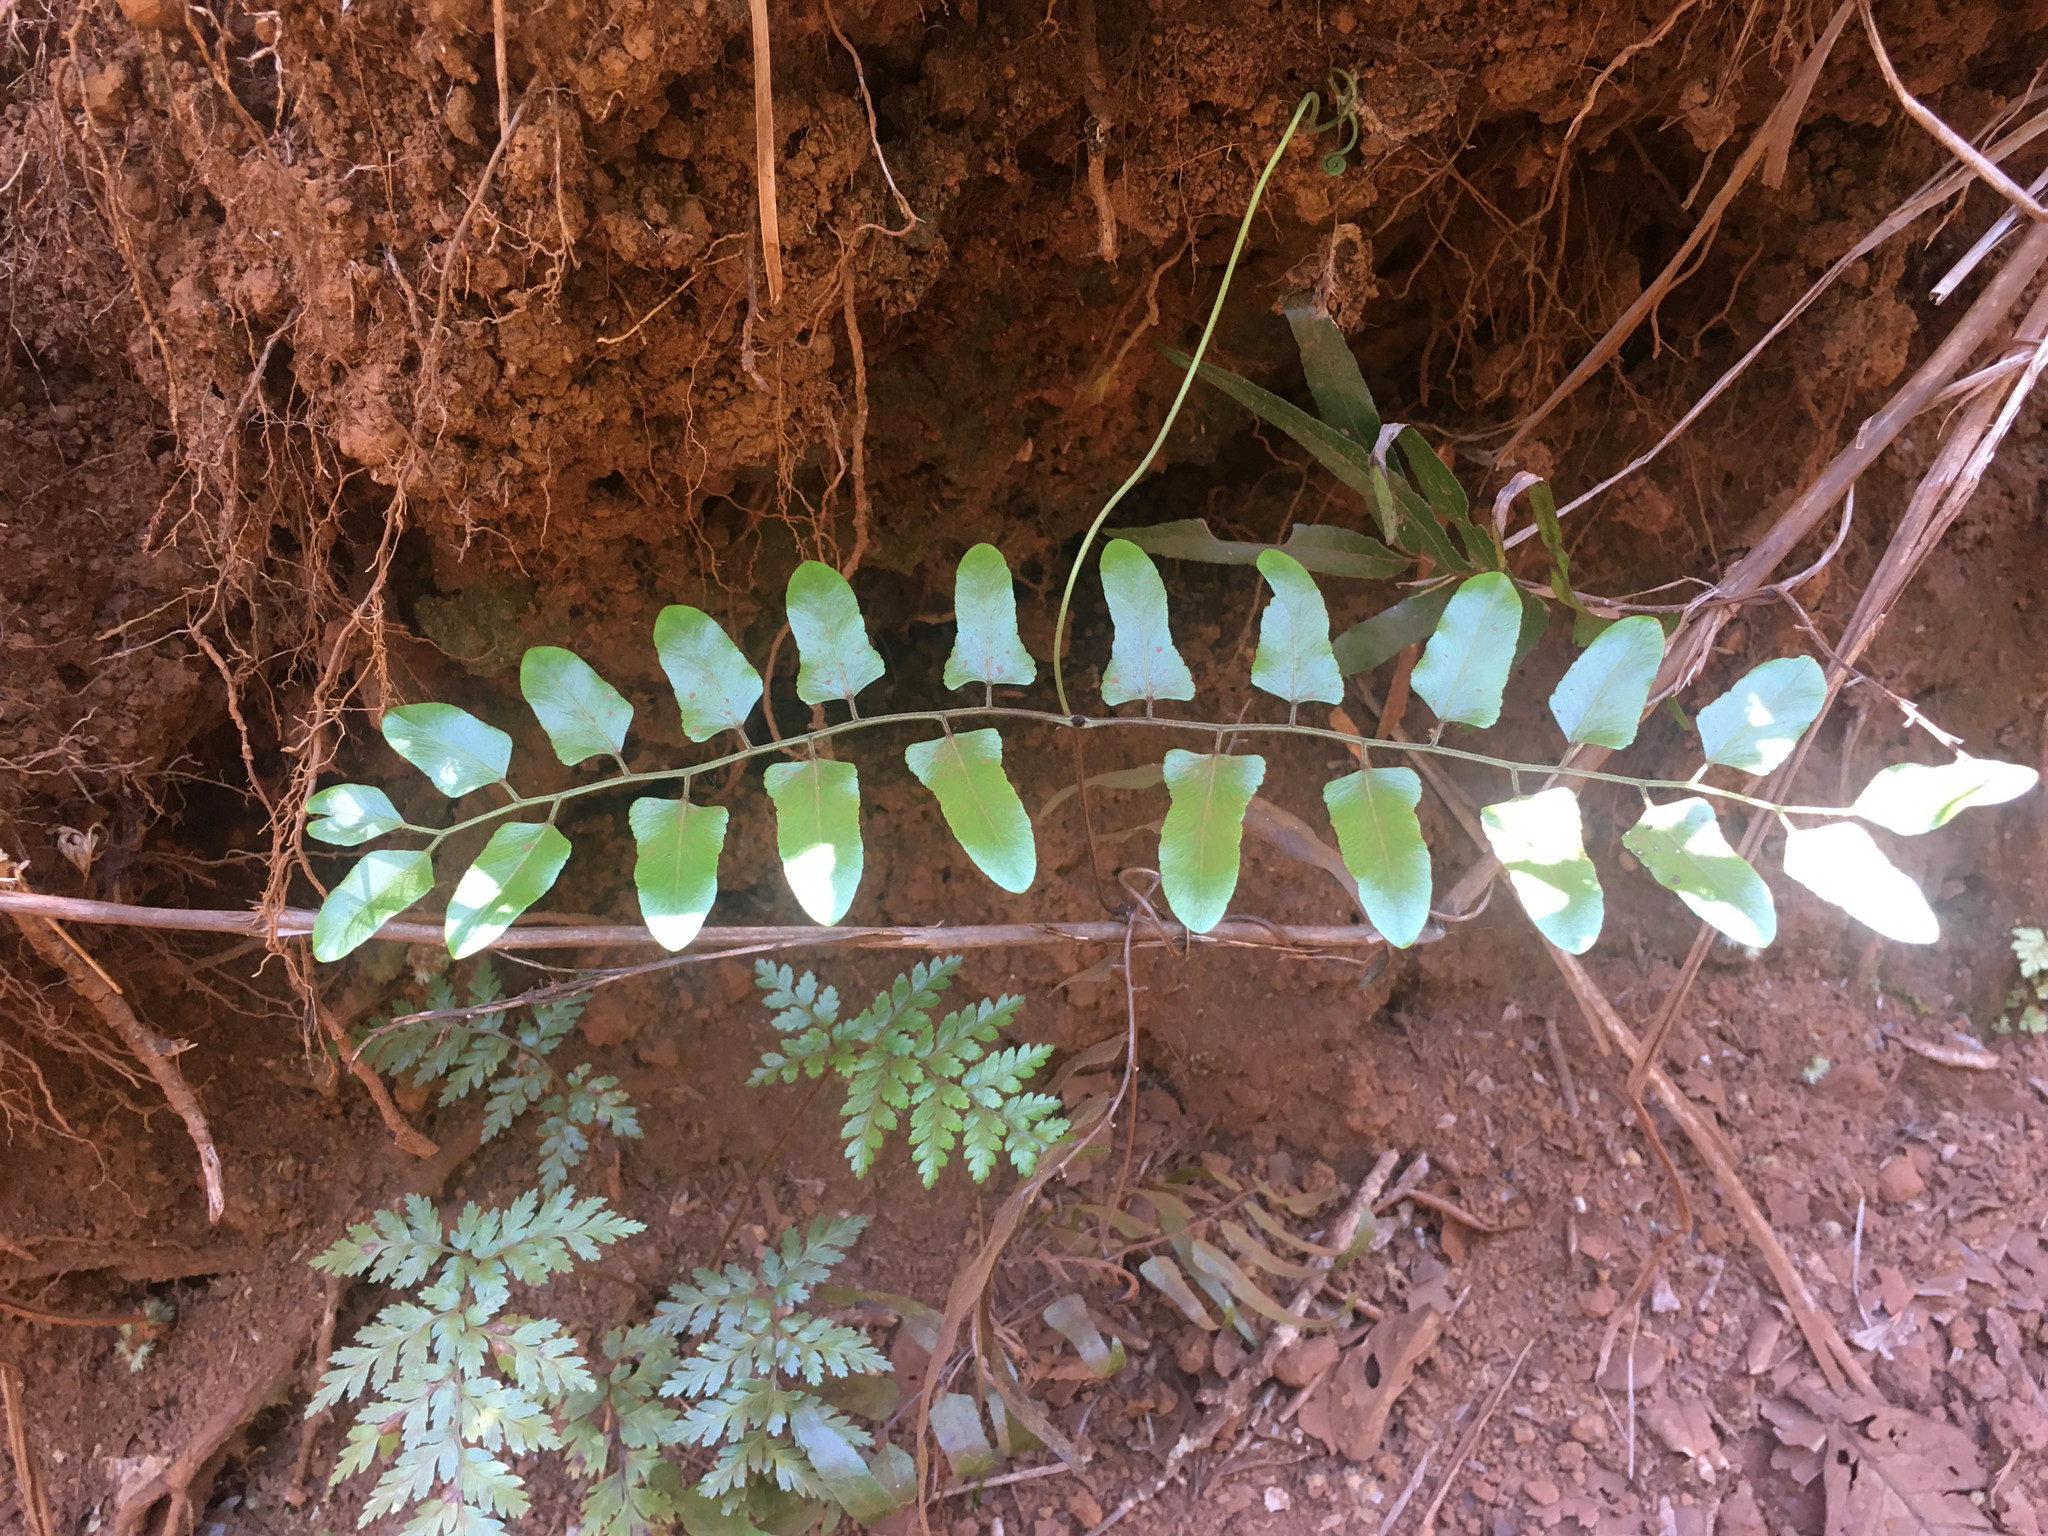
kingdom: Plantae
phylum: Tracheophyta
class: Polypodiopsida
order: Schizaeales
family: Lygodiaceae
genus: Lygodium
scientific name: Lygodium reticulatum
